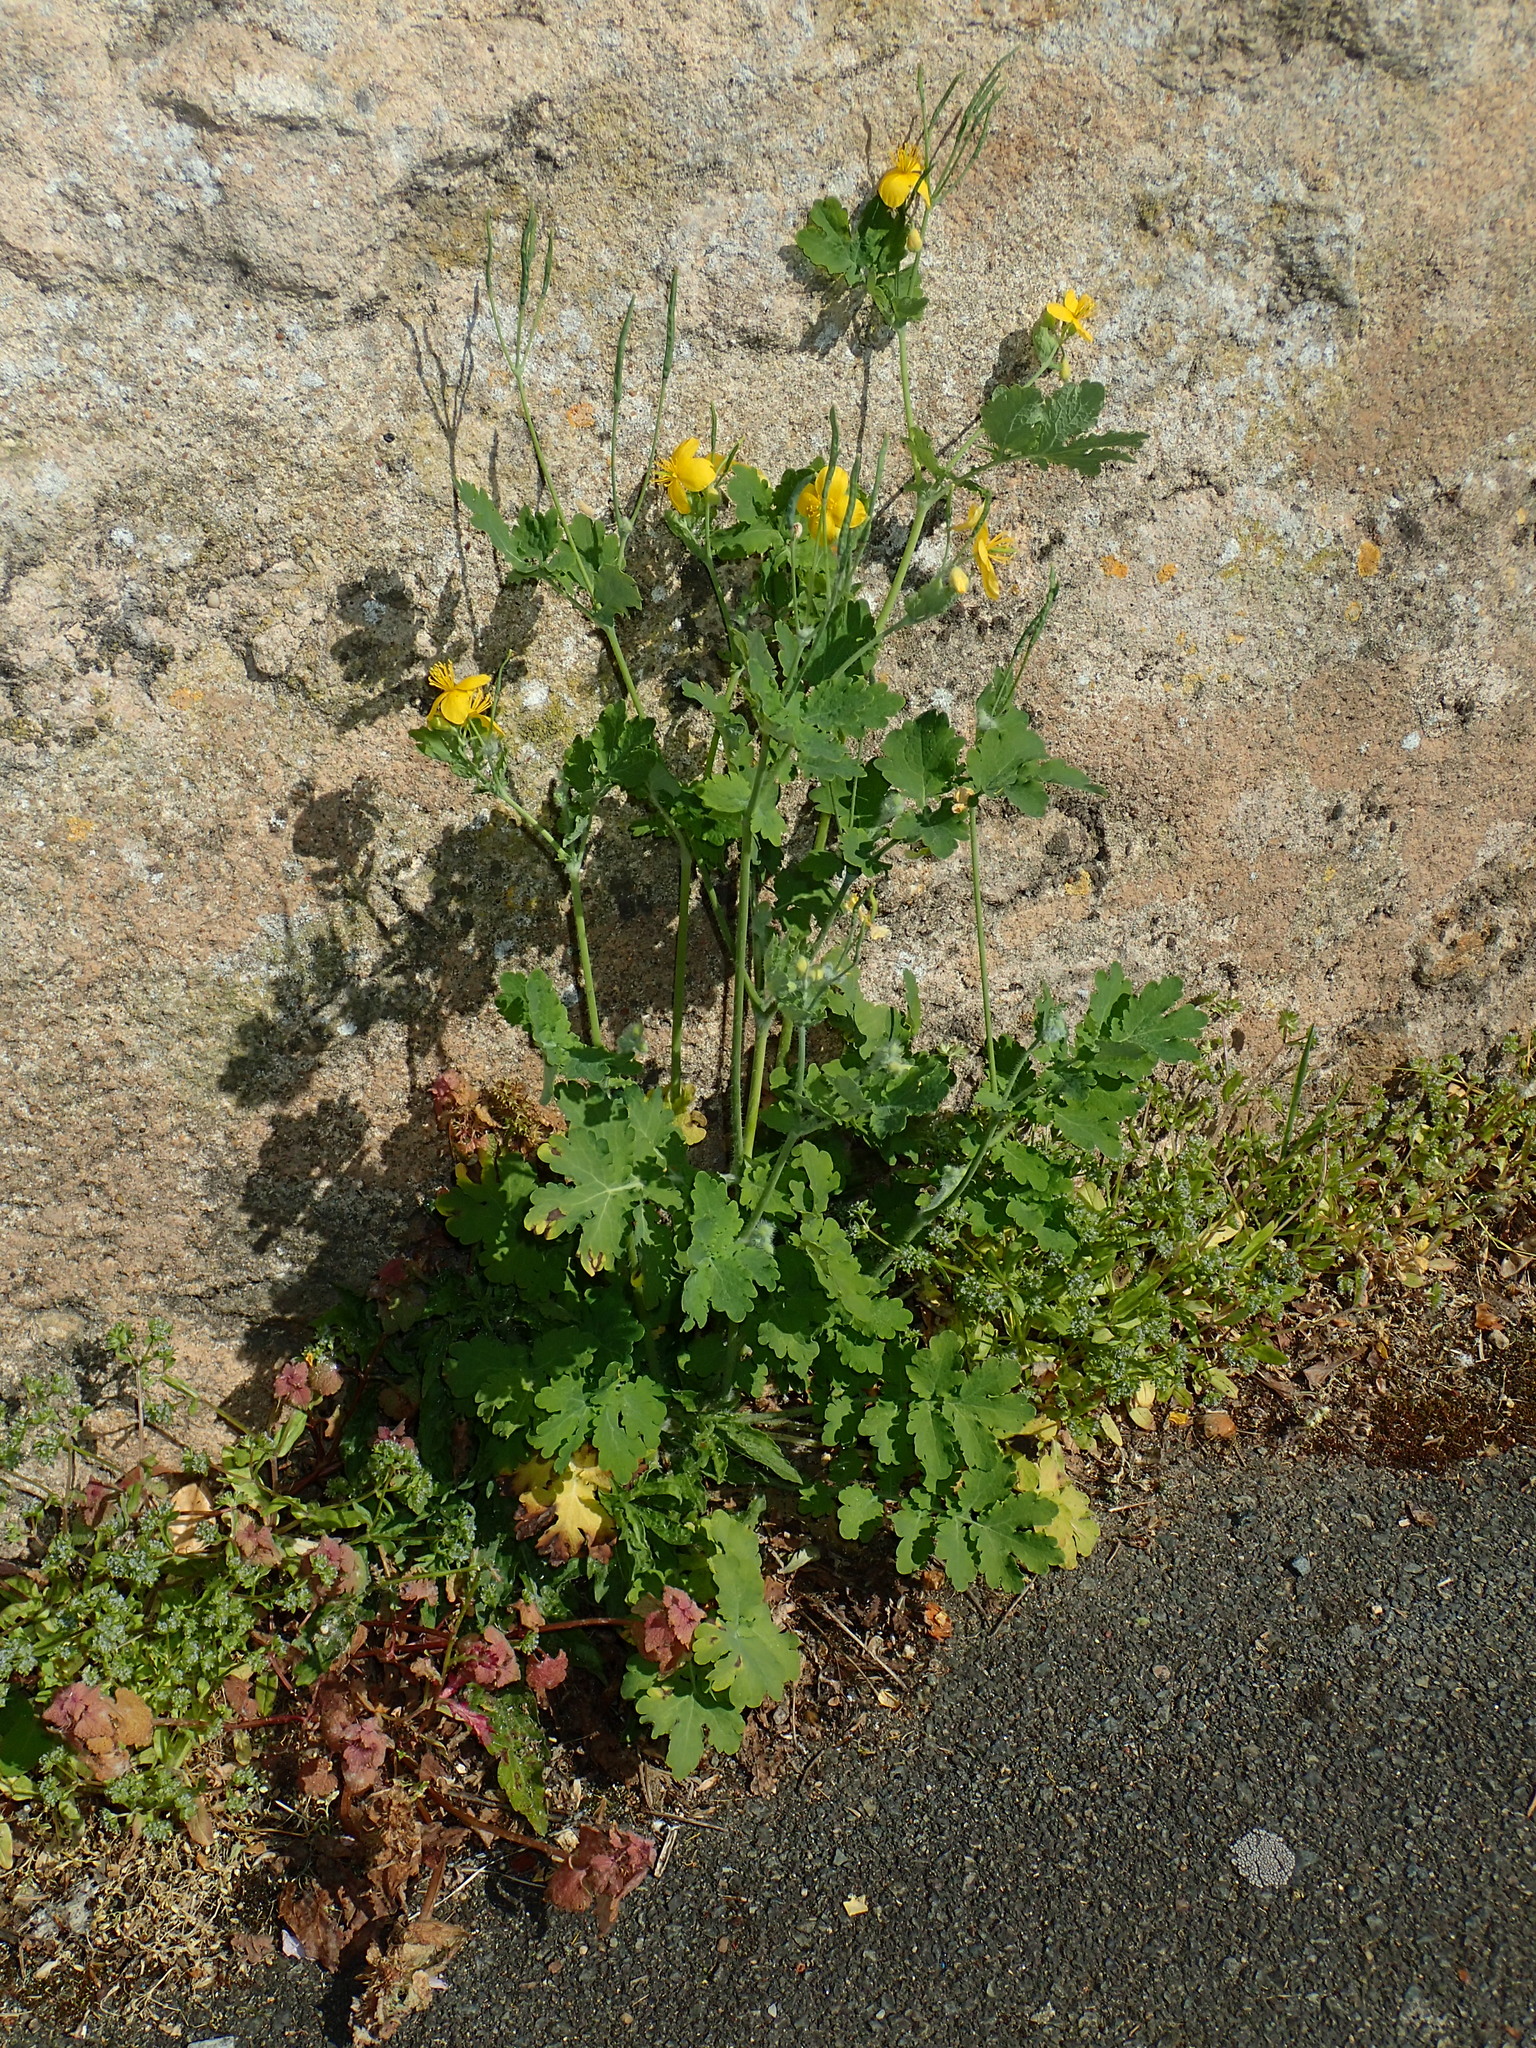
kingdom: Plantae
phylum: Tracheophyta
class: Magnoliopsida
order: Ranunculales
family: Papaveraceae
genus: Chelidonium
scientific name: Chelidonium majus
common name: Greater celandine
